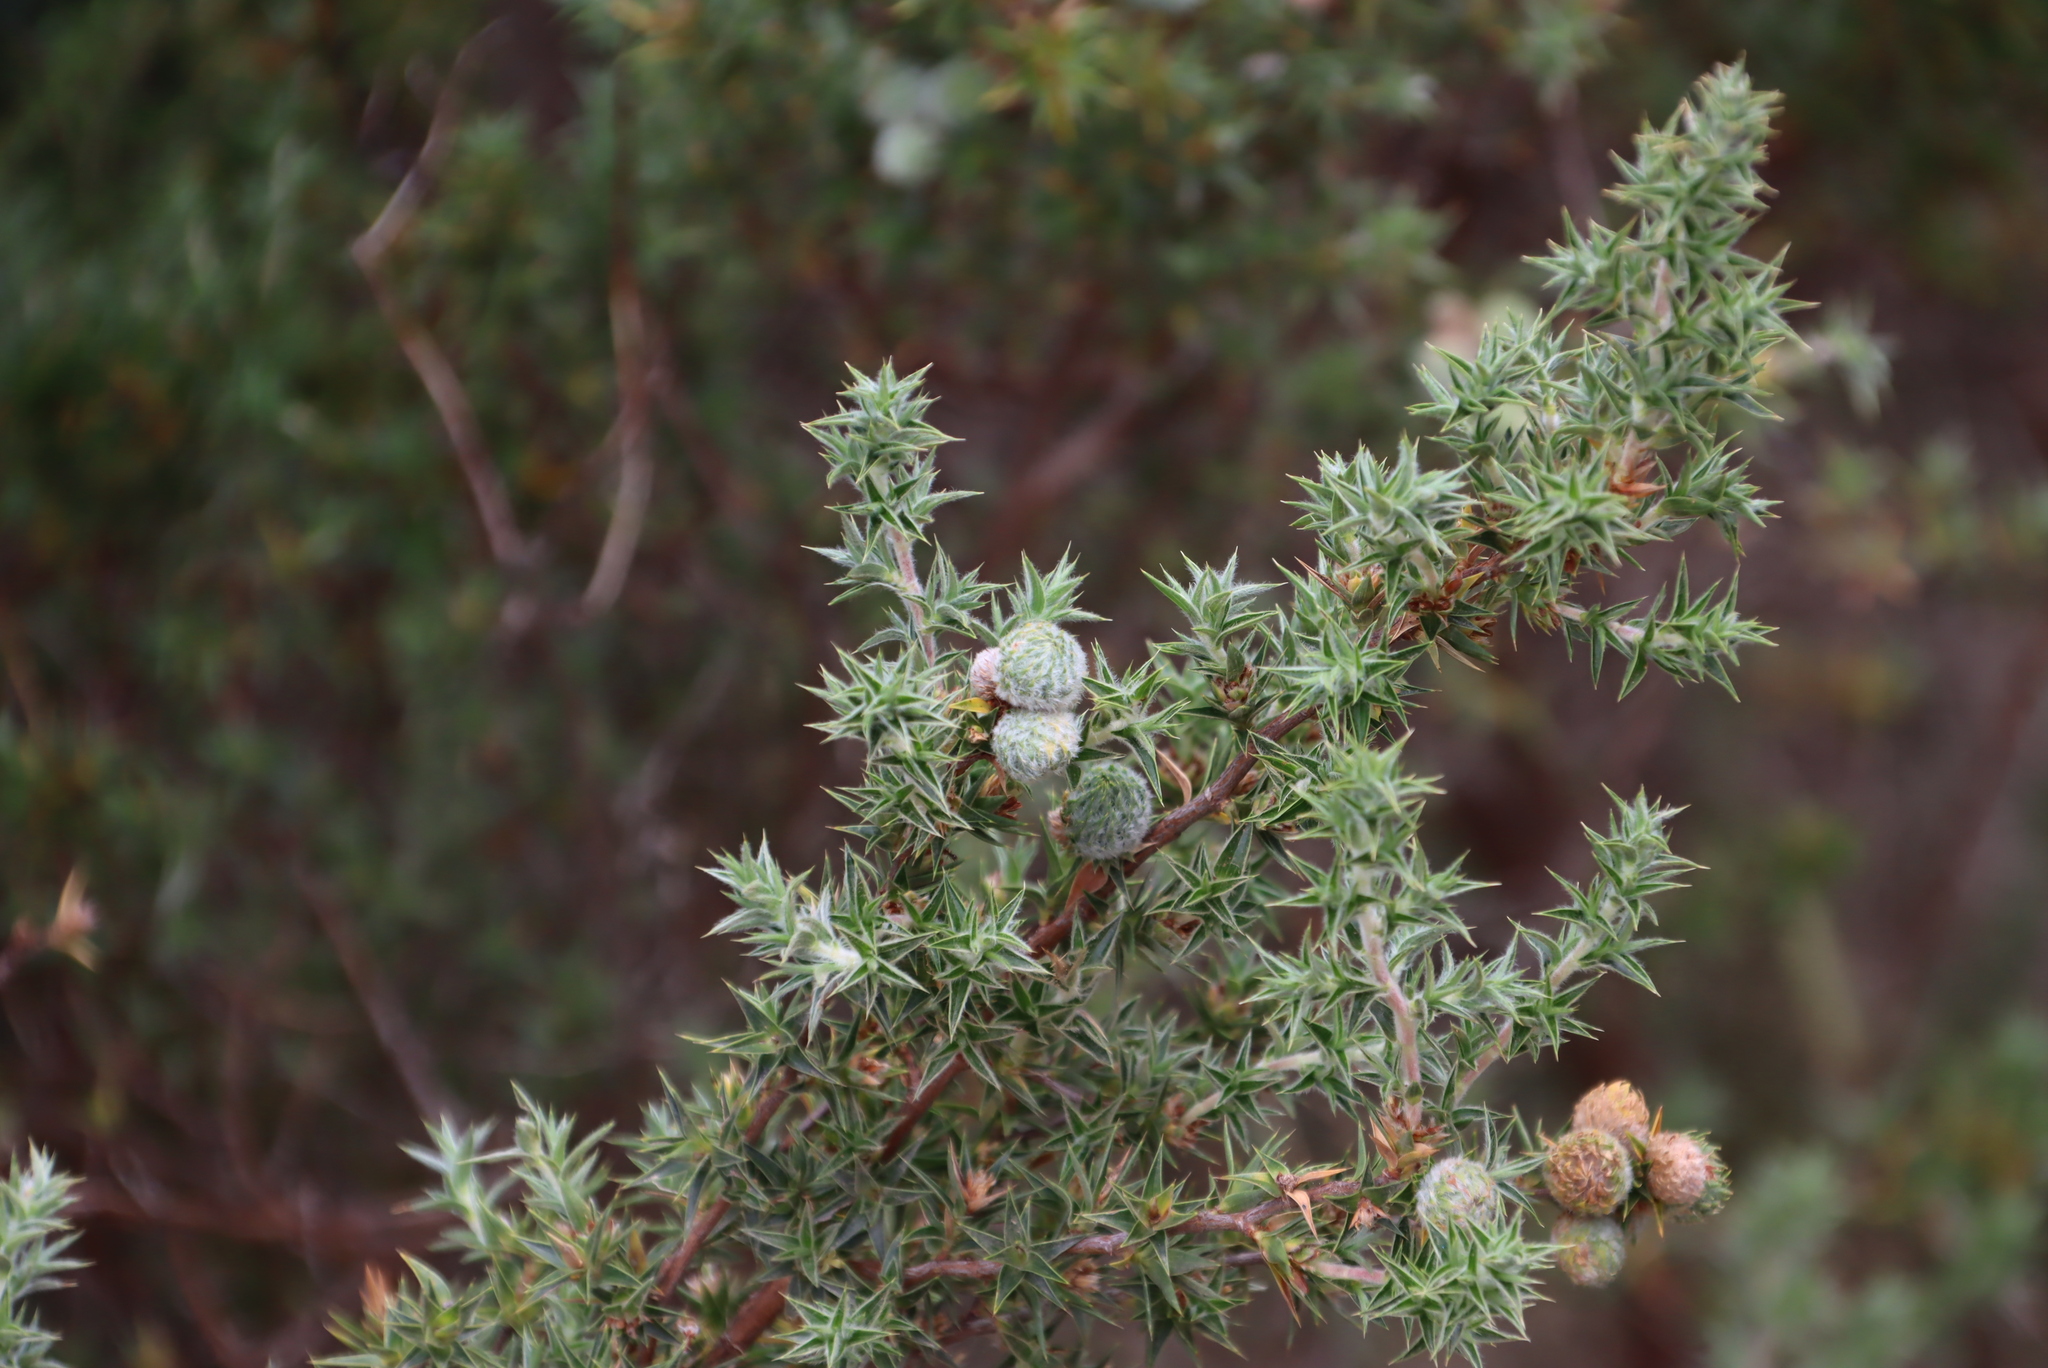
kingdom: Plantae
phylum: Tracheophyta
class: Magnoliopsida
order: Rosales
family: Rosaceae
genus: Cliffortia
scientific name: Cliffortia ruscifolia
